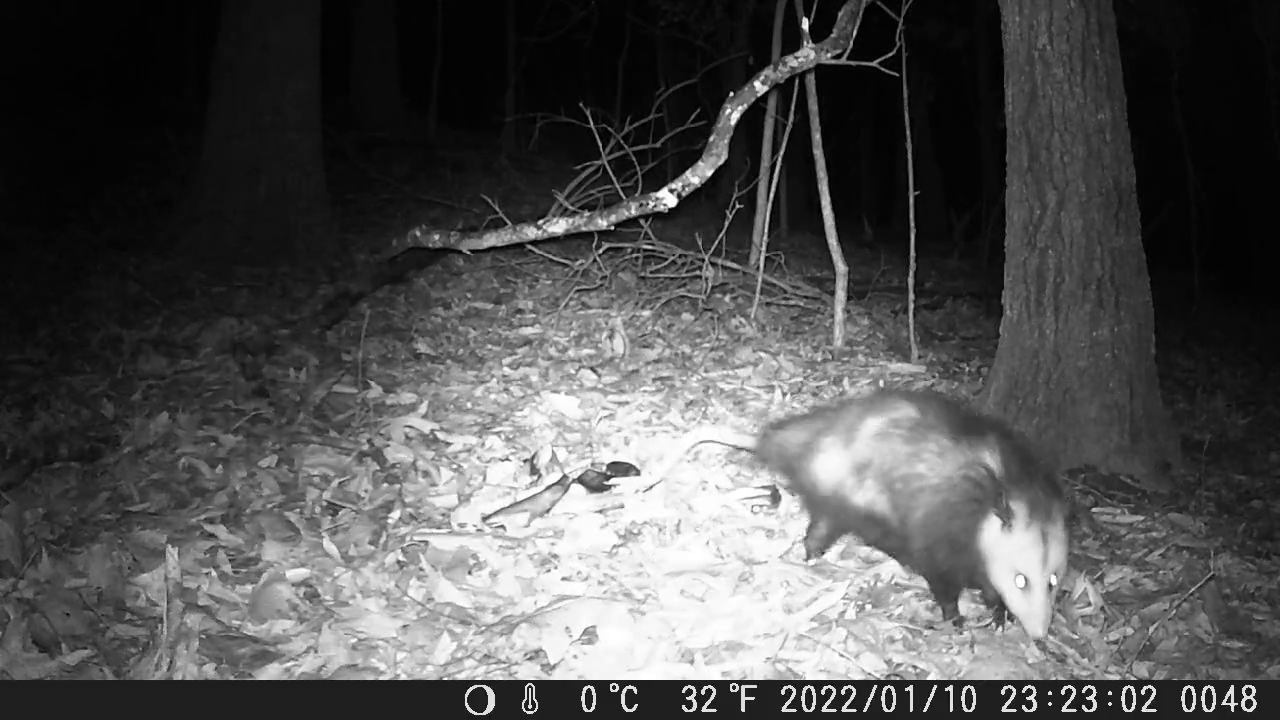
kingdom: Animalia
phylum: Chordata
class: Mammalia
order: Didelphimorphia
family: Didelphidae
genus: Didelphis
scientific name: Didelphis virginiana
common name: Virginia opossum
